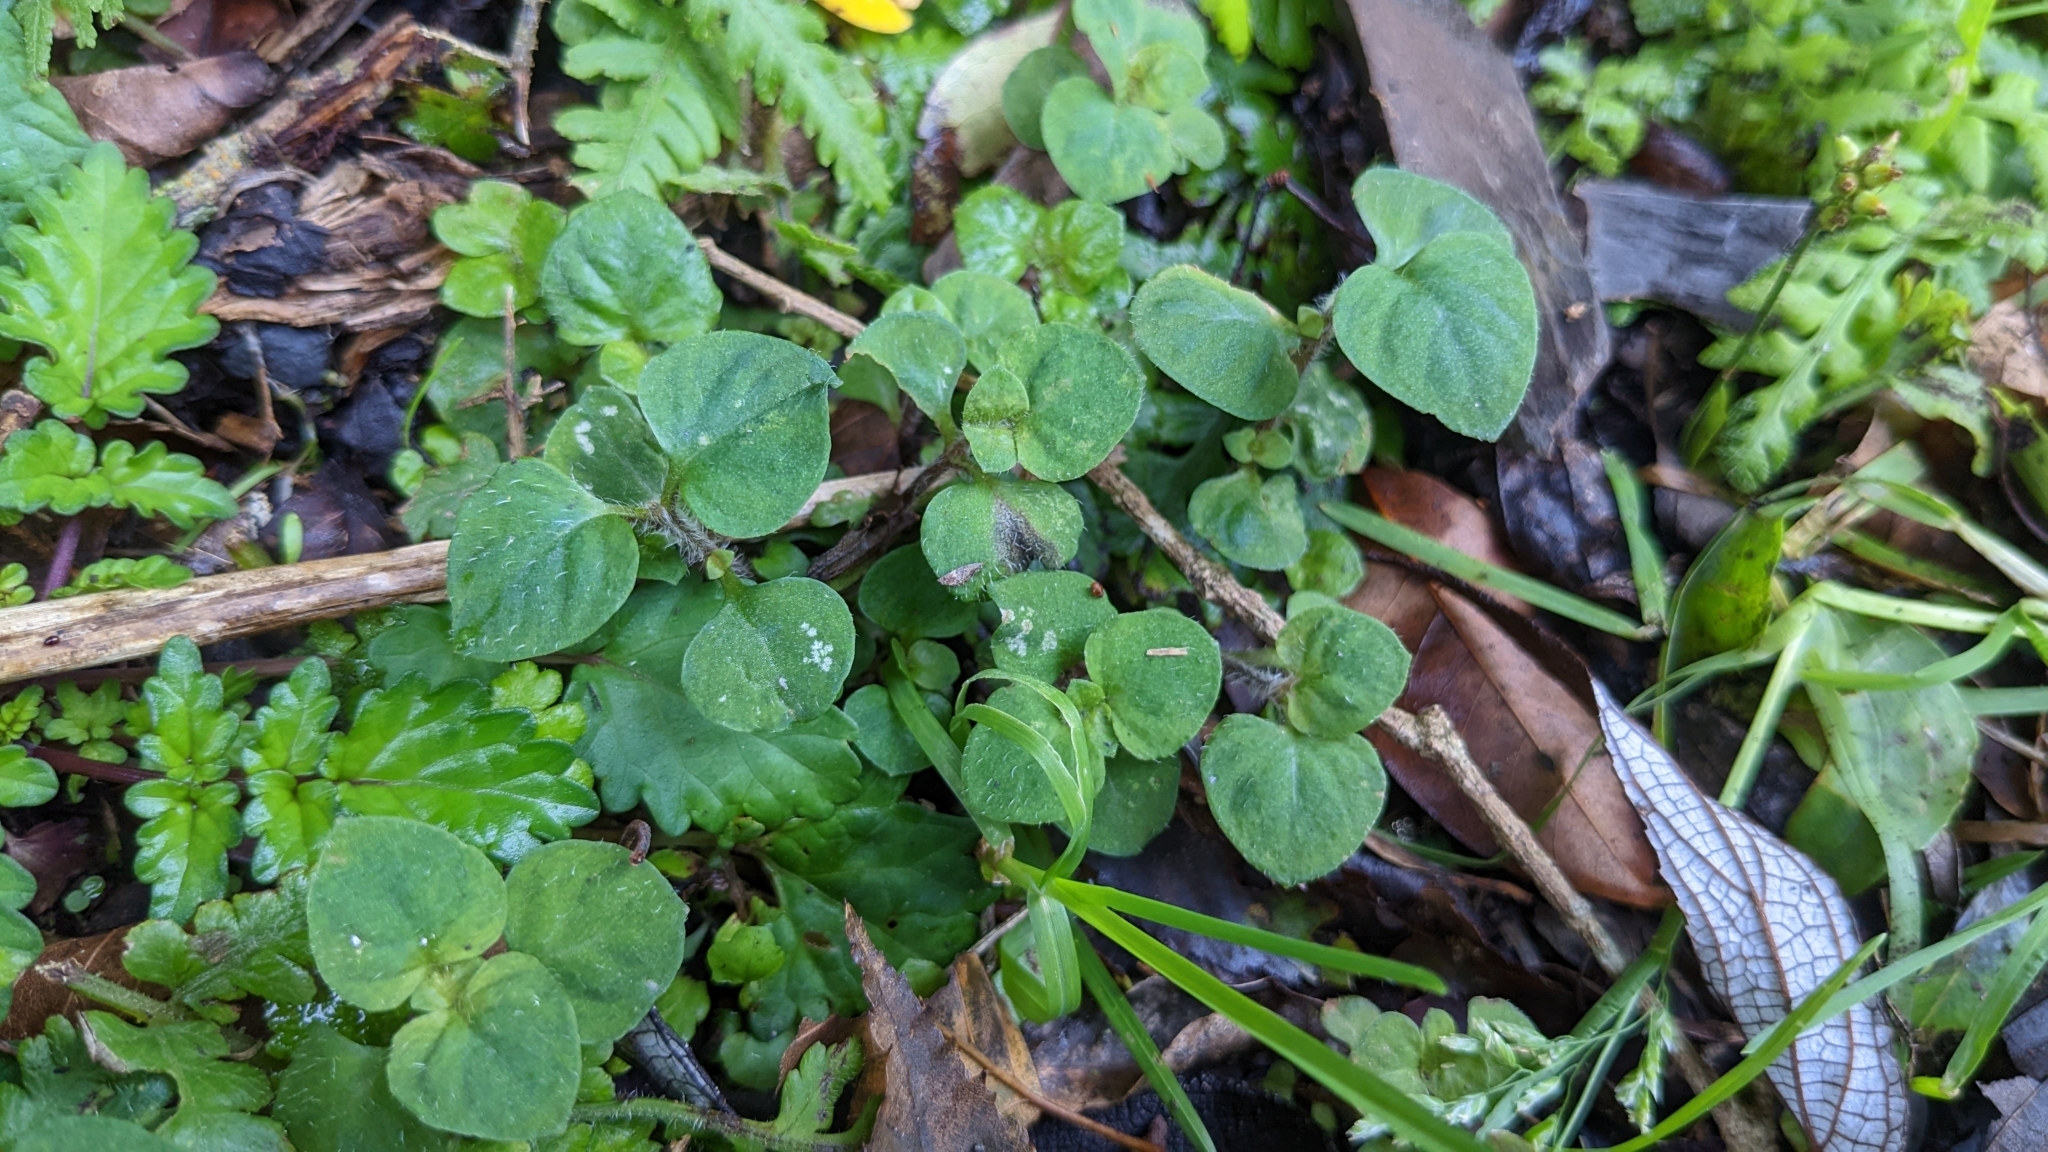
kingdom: Plantae
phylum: Tracheophyta
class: Magnoliopsida
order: Ericales
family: Primulaceae
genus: Lysimachia
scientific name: Lysimachia ravenii
